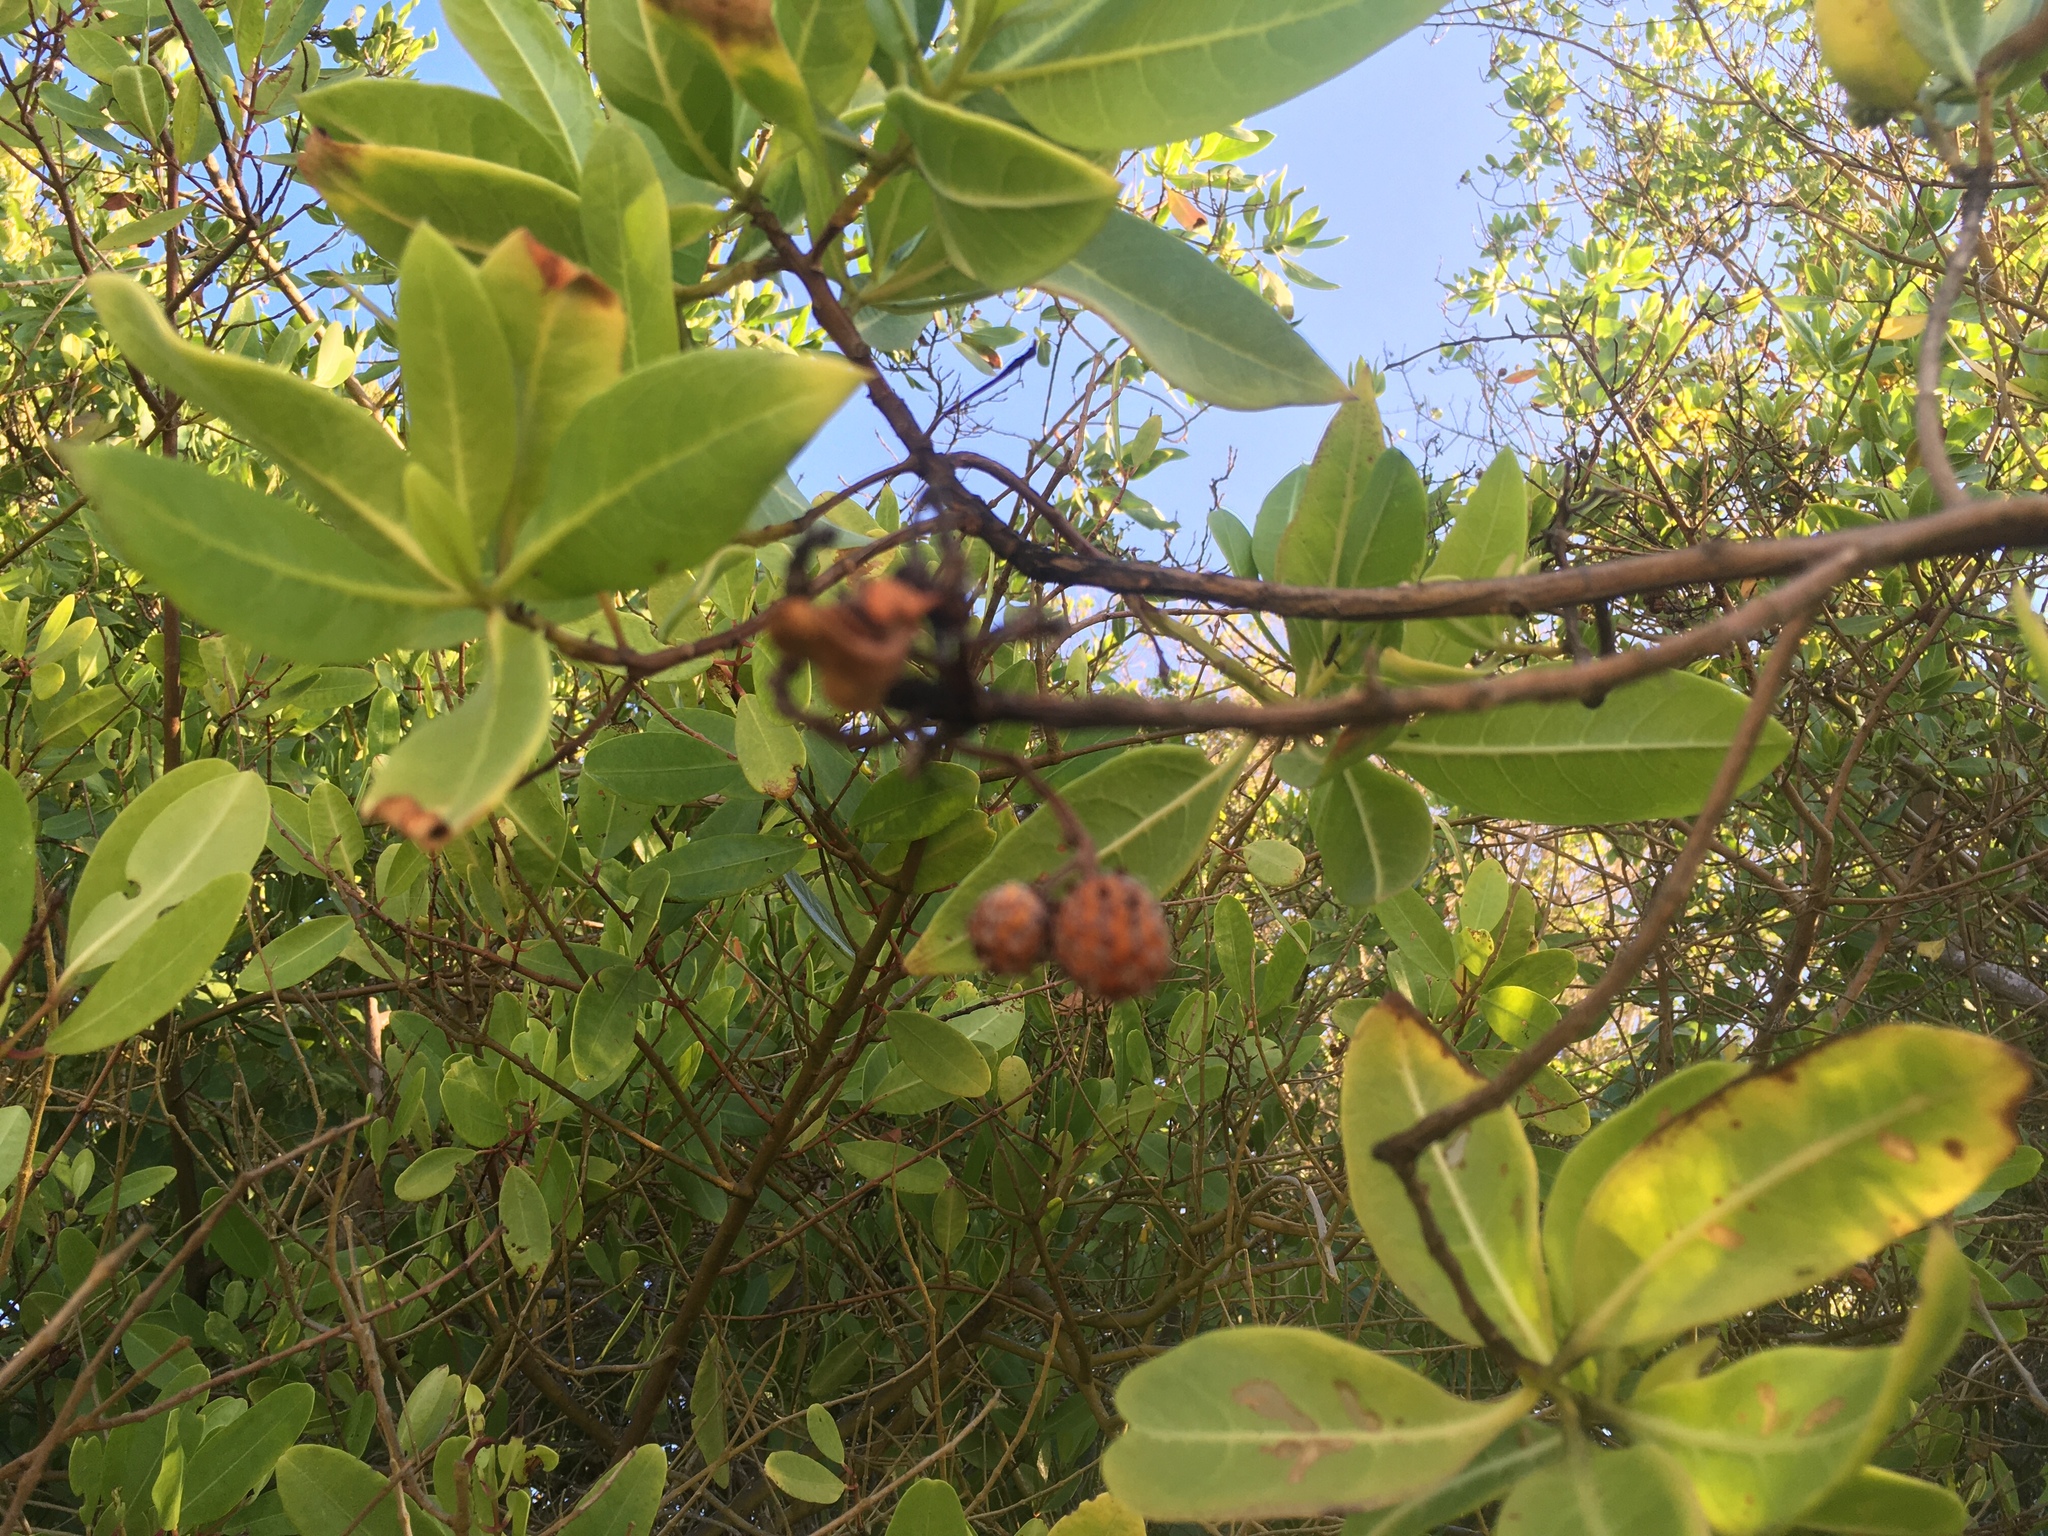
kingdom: Plantae
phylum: Tracheophyta
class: Magnoliopsida
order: Myrtales
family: Combretaceae
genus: Conocarpus
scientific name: Conocarpus erectus
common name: Button mangrove
